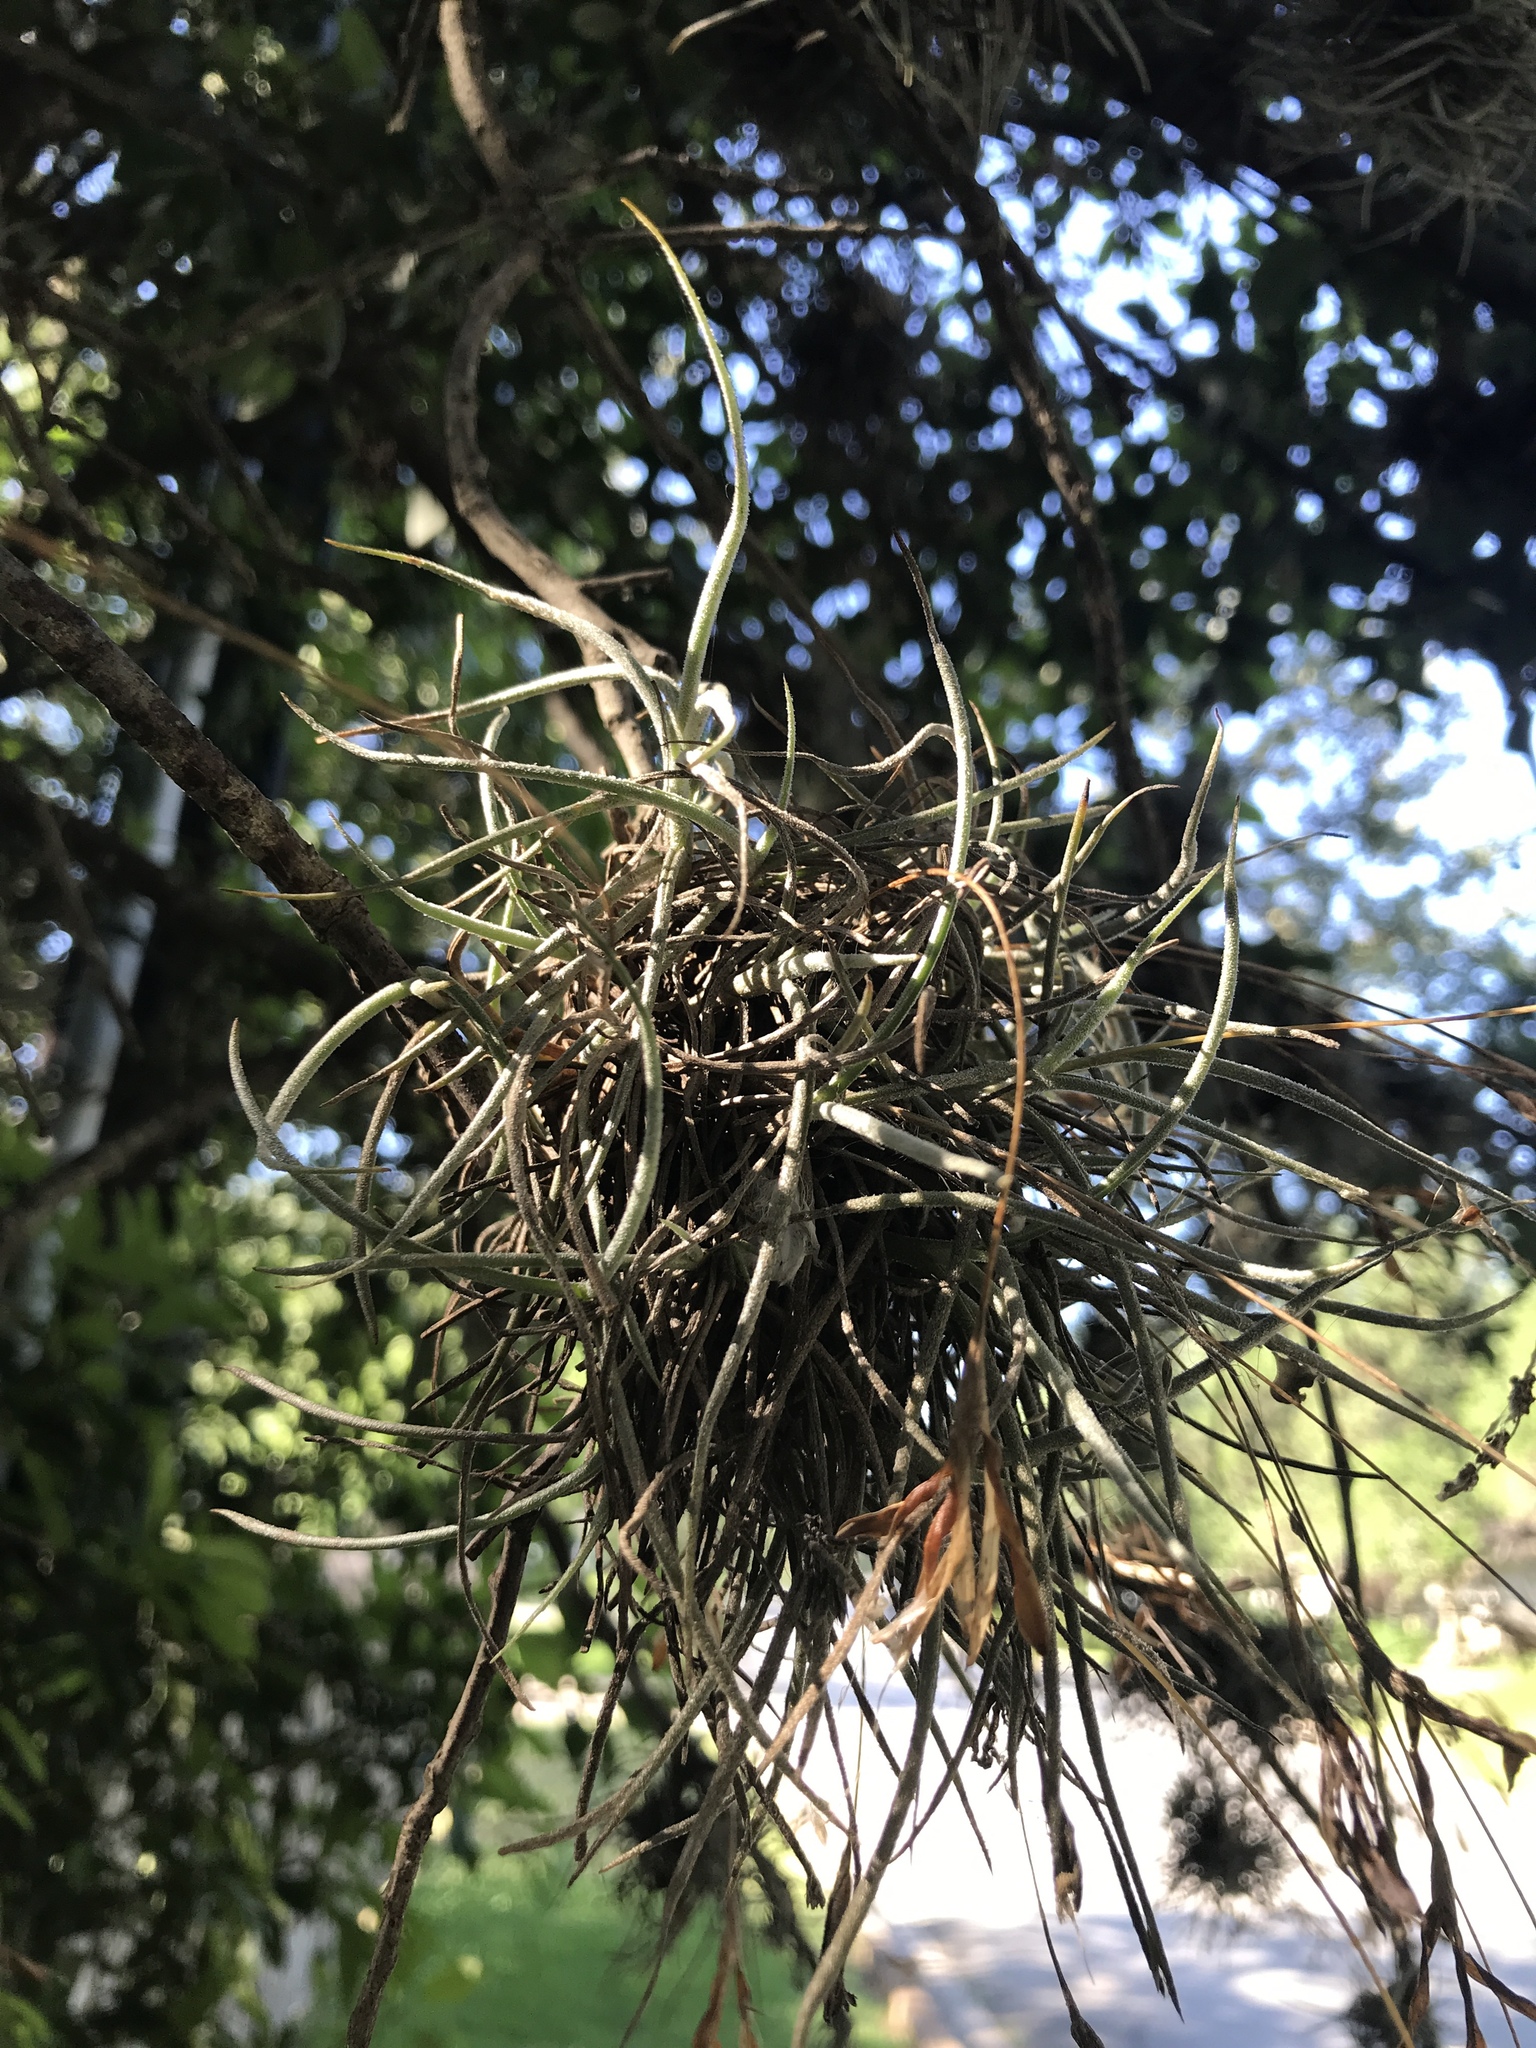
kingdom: Plantae
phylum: Tracheophyta
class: Liliopsida
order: Poales
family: Bromeliaceae
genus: Tillandsia
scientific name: Tillandsia recurvata
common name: Small ballmoss
